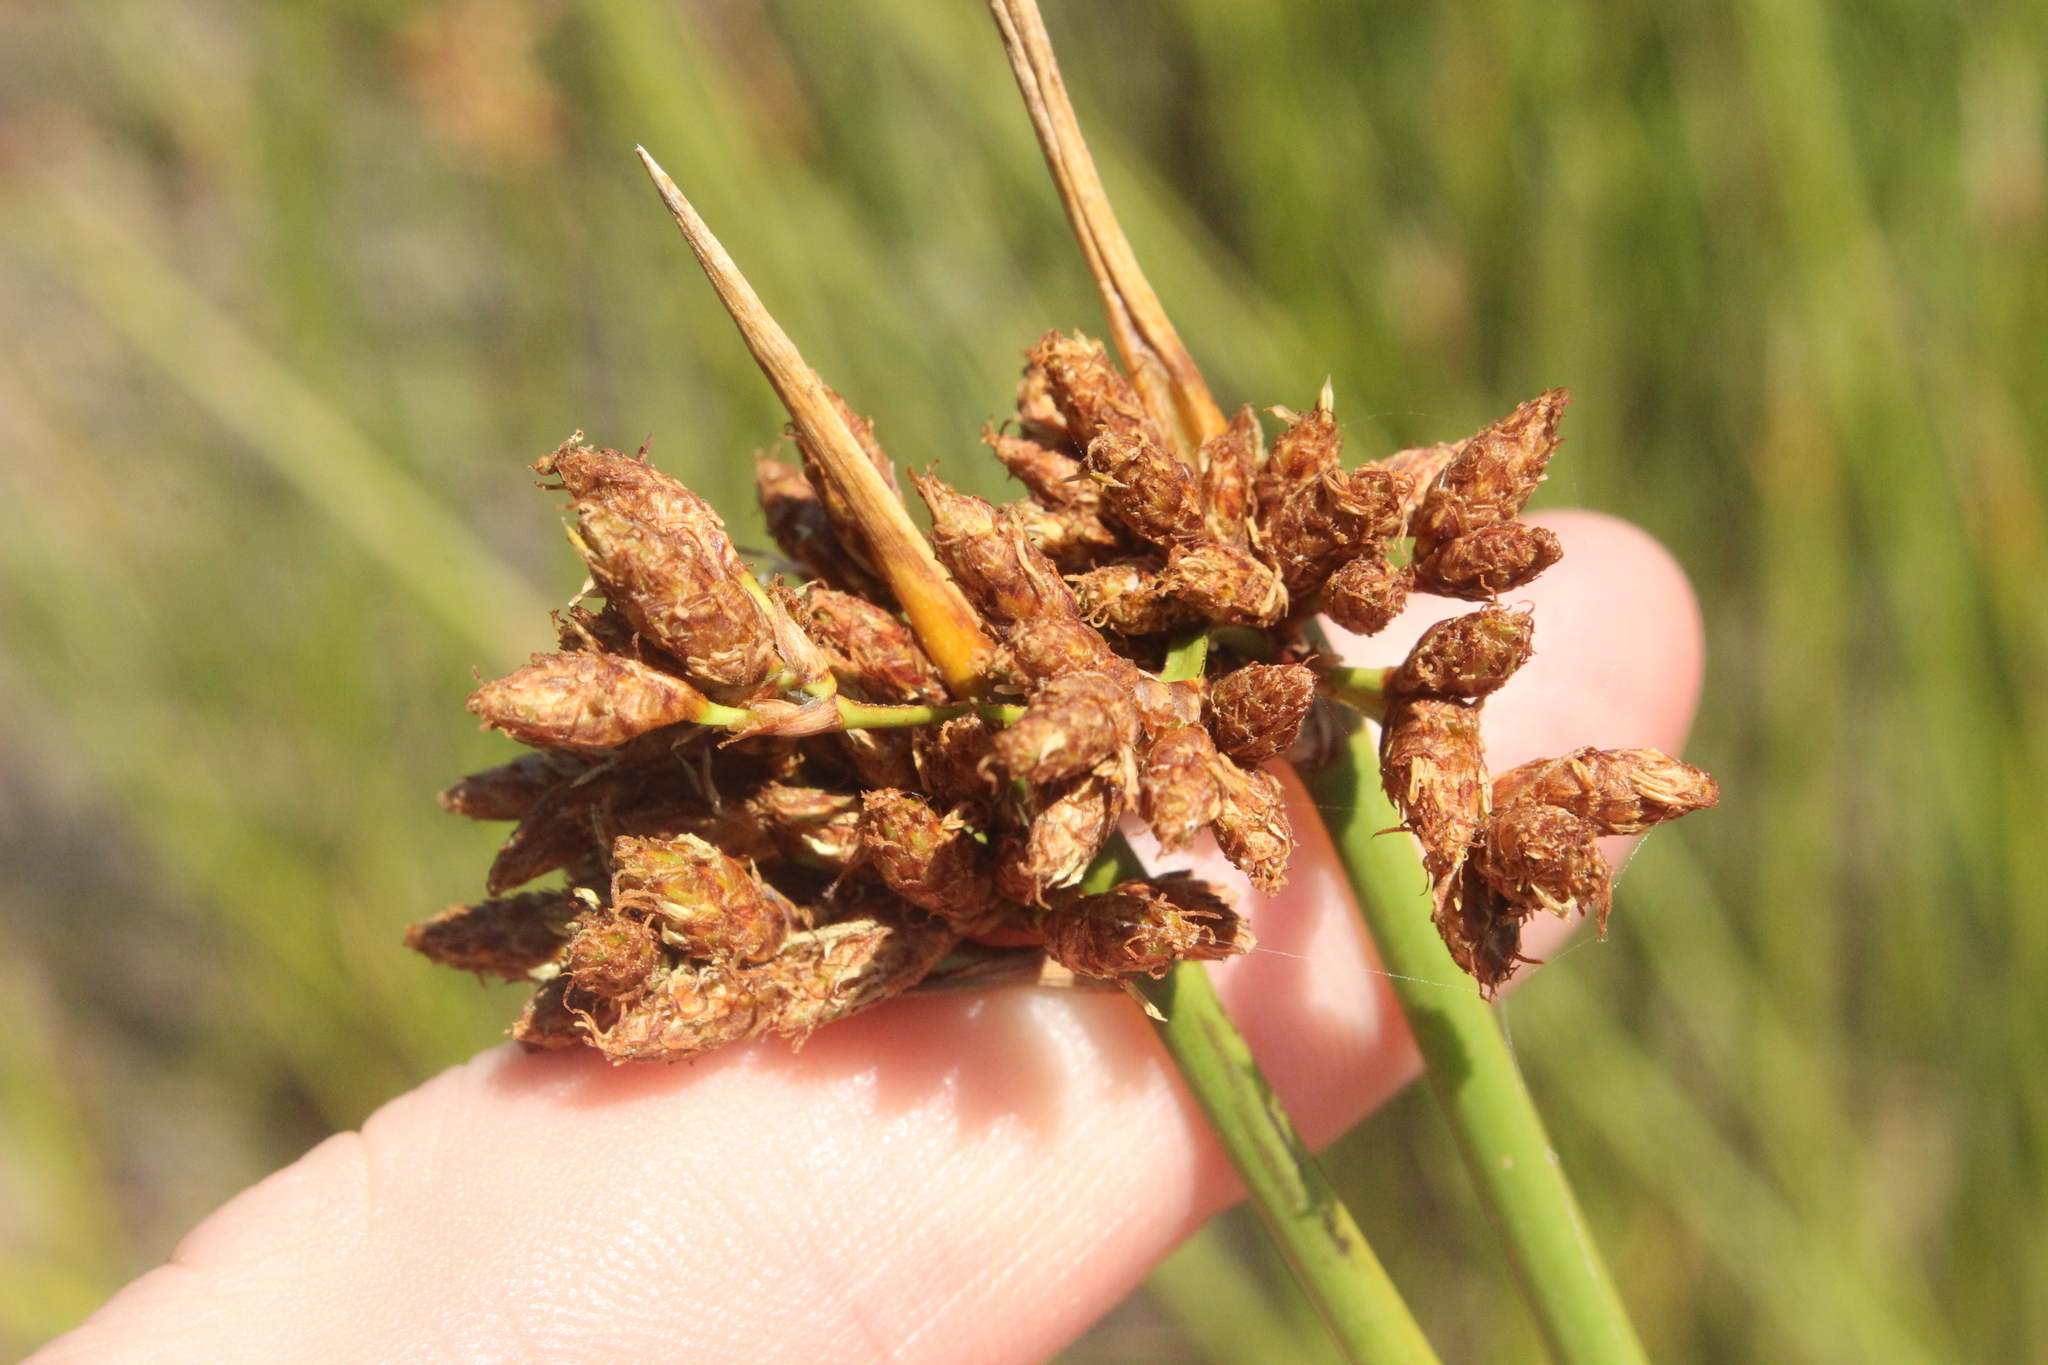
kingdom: Plantae
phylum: Tracheophyta
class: Liliopsida
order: Poales
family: Cyperaceae
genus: Schoenoplectus
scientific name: Schoenoplectus tabernaemontani
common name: Grey club-rush
